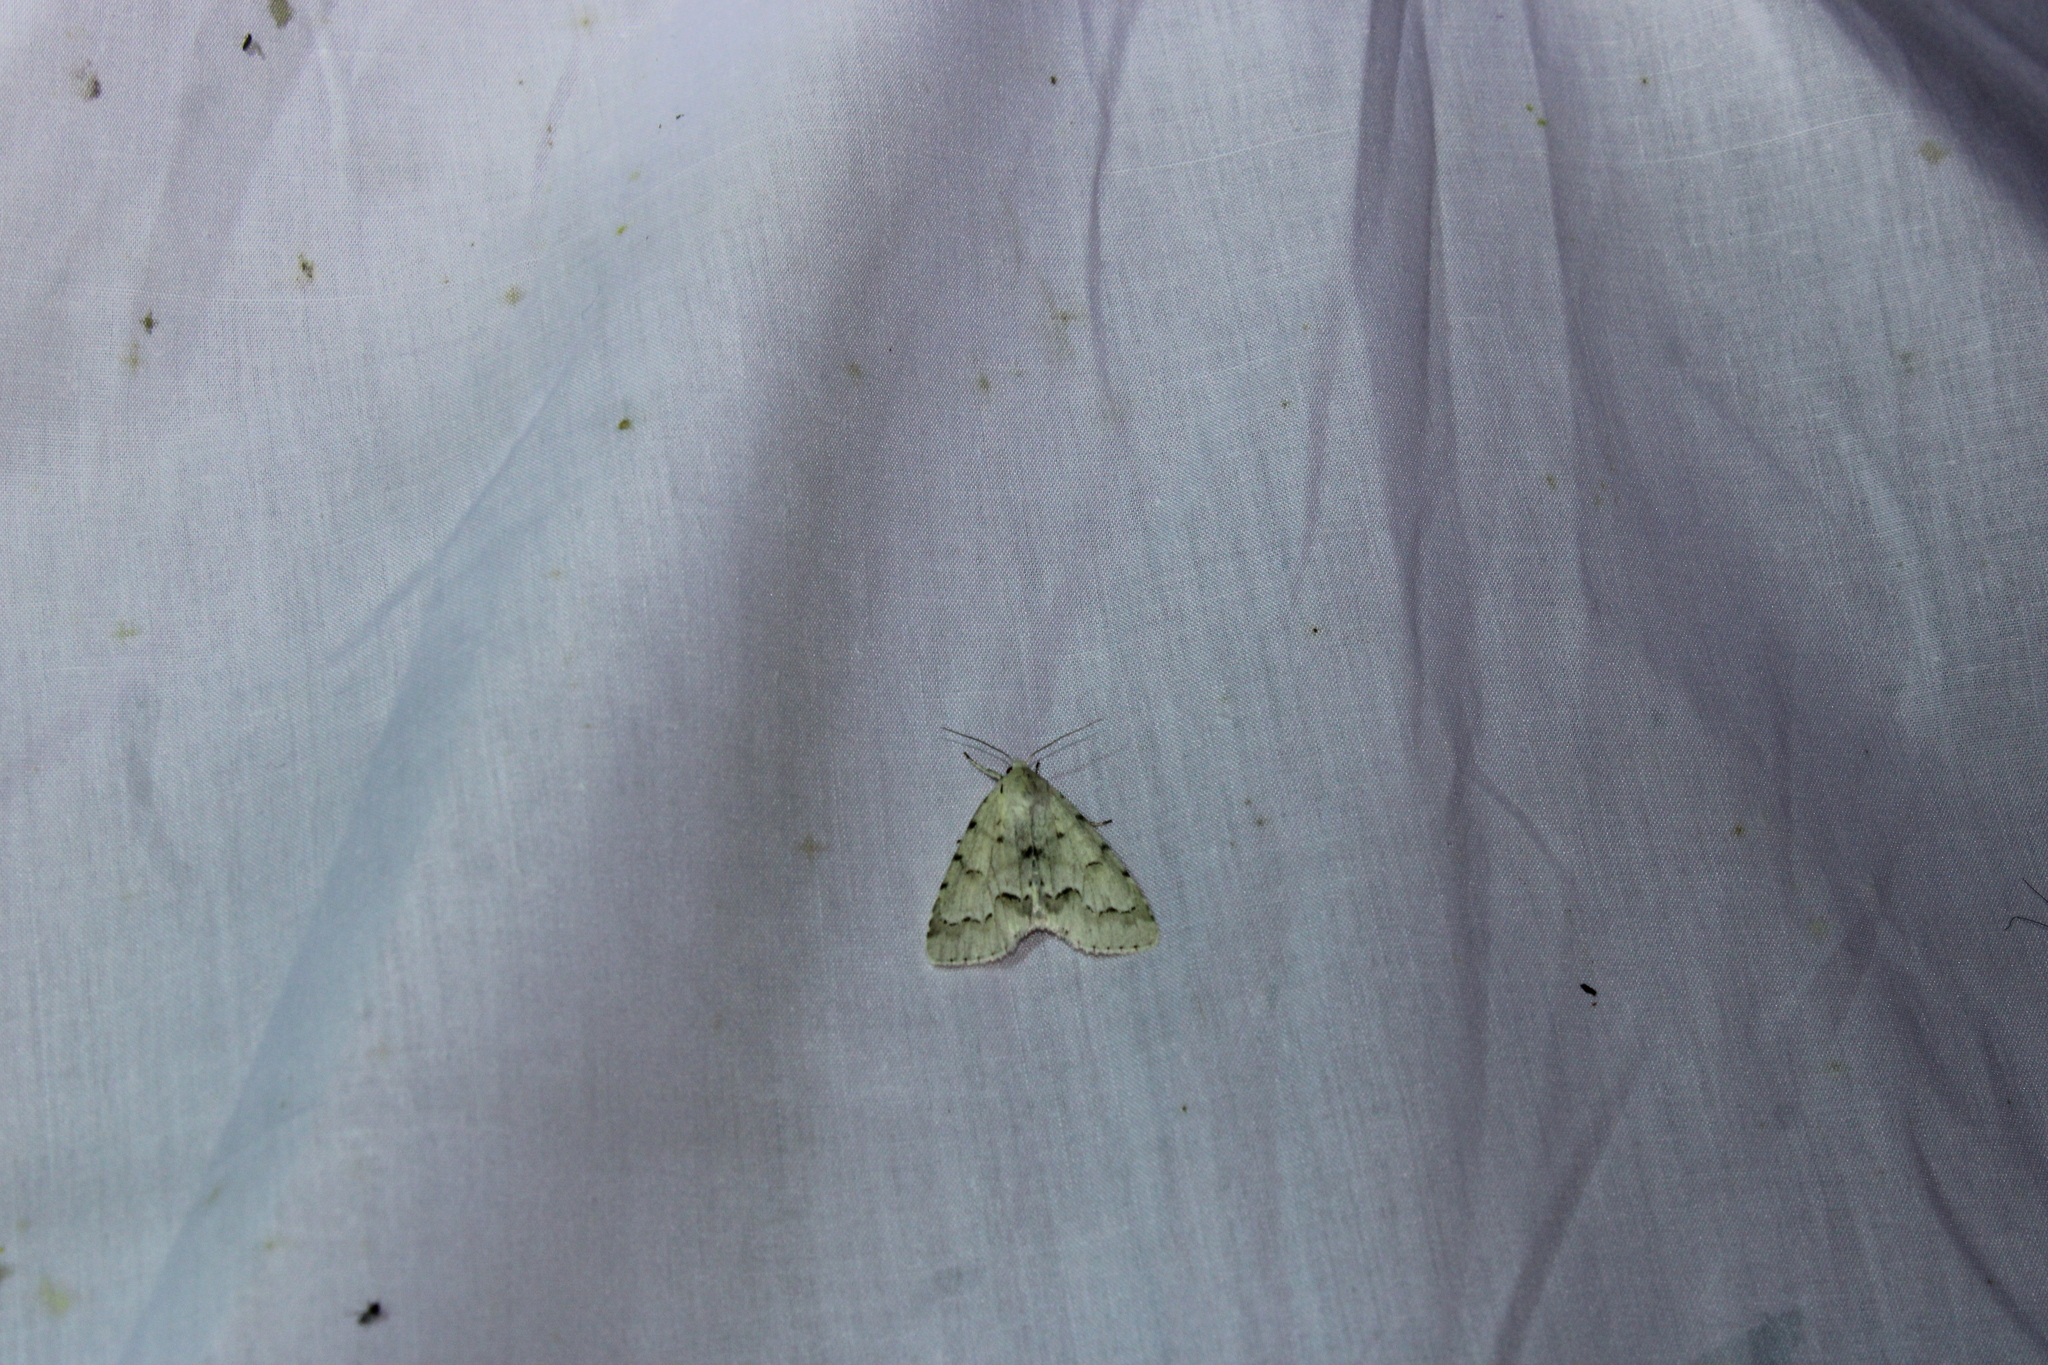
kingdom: Animalia
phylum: Arthropoda
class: Insecta
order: Lepidoptera
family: Noctuidae
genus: Acronicta
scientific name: Acronicta innotata
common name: Unmarked dagger
